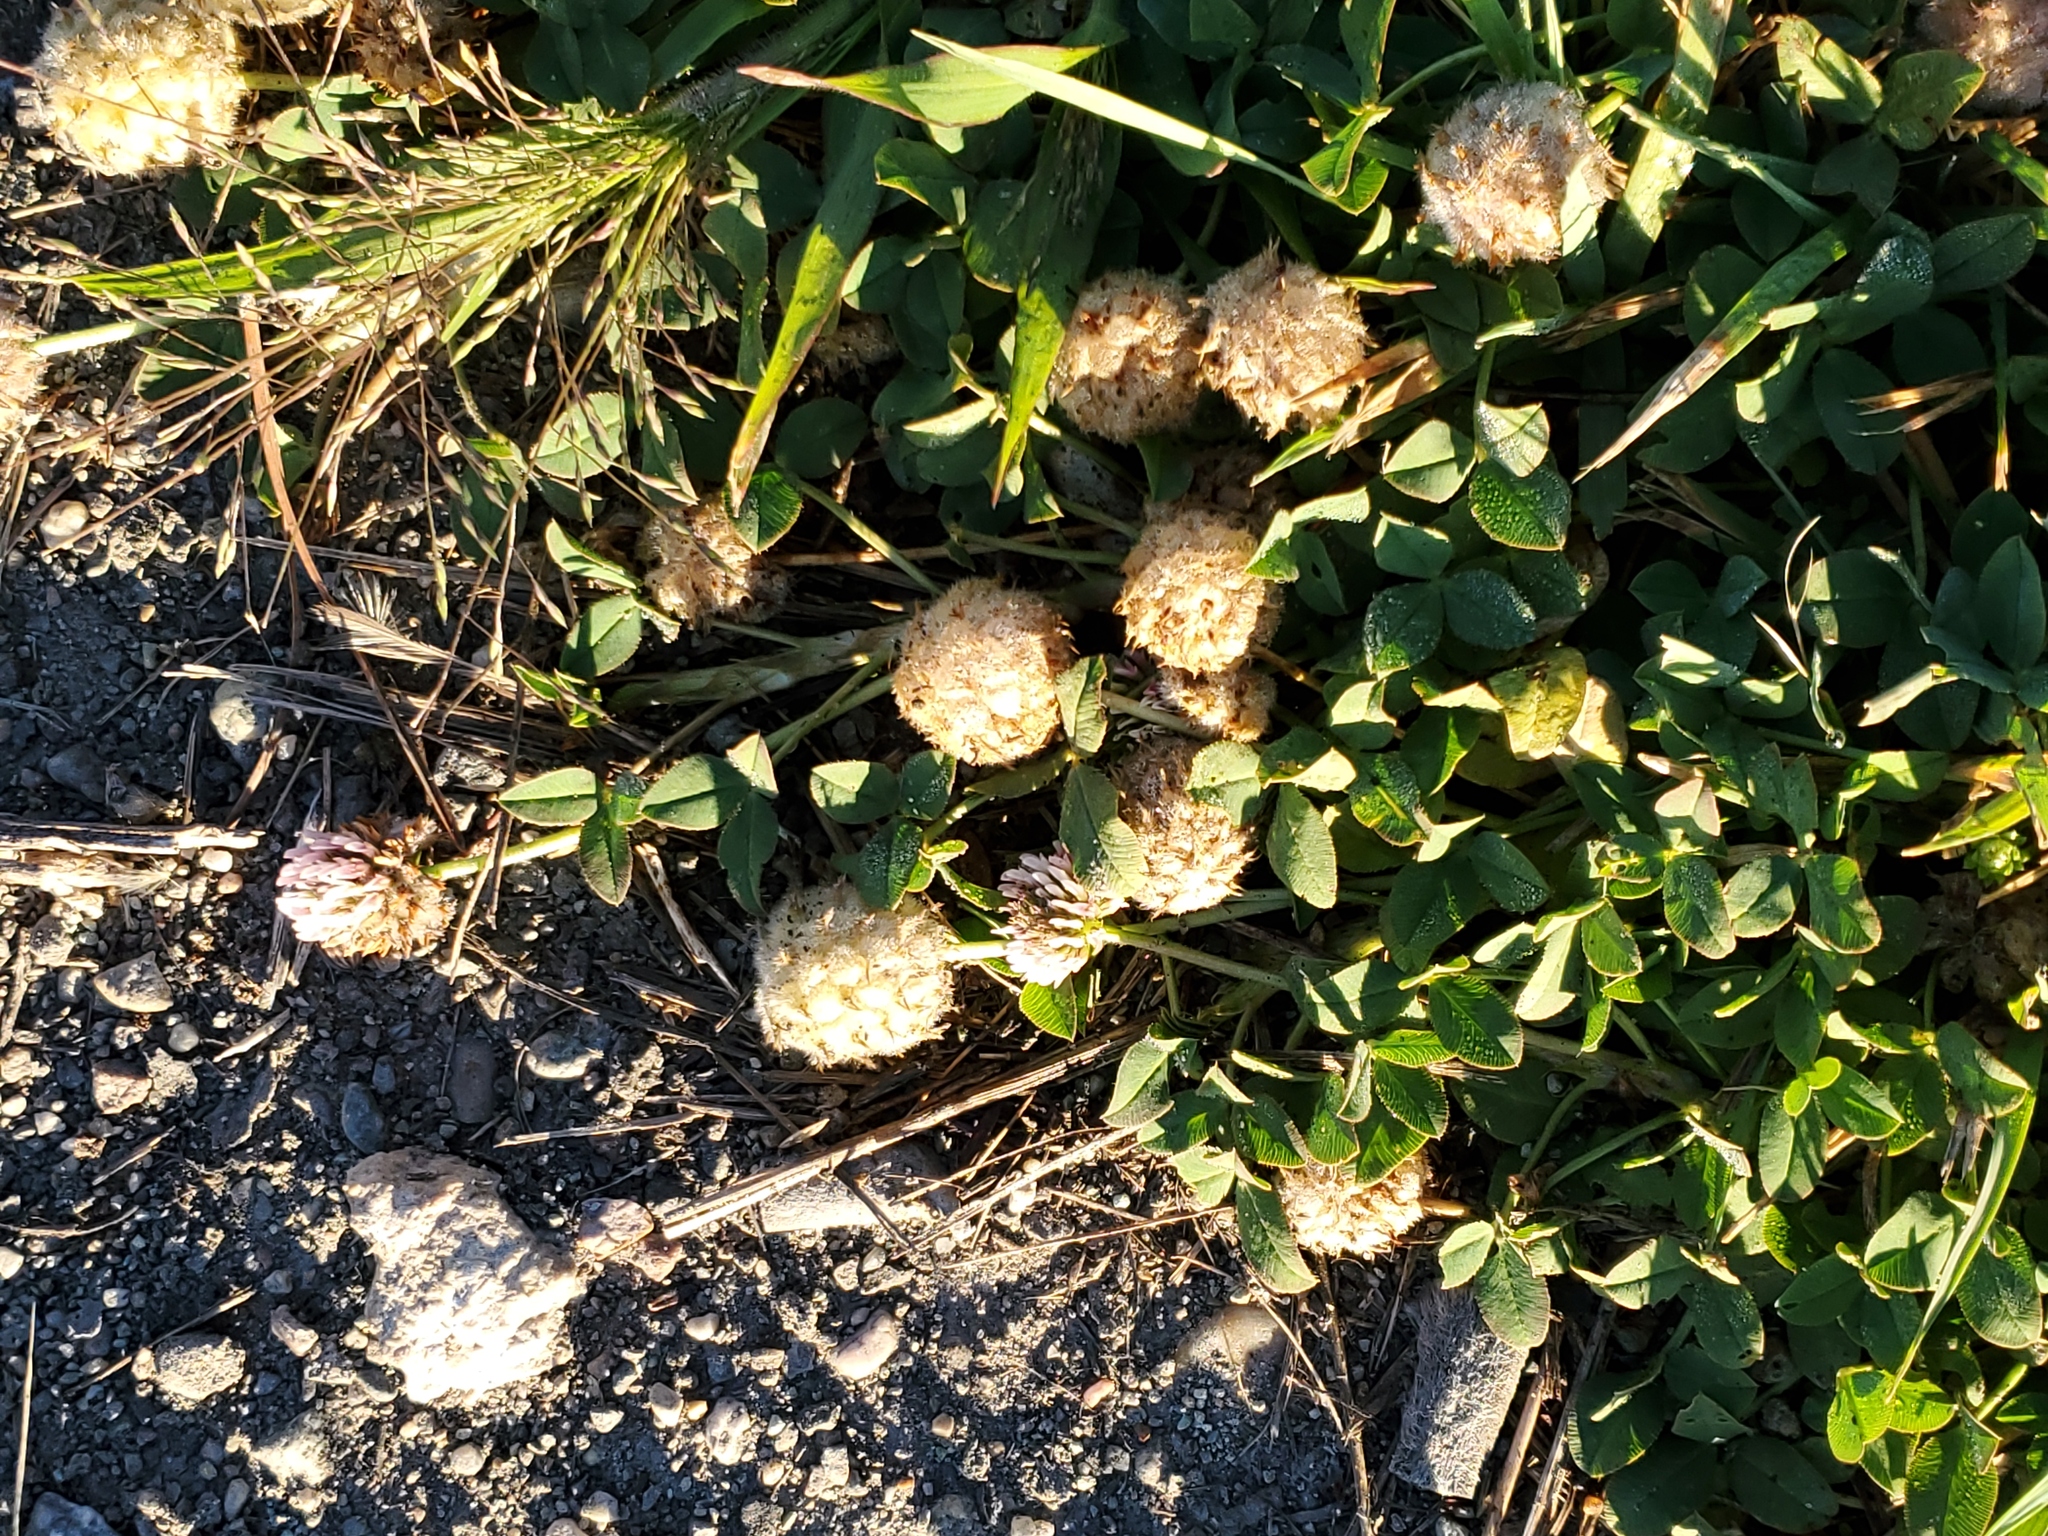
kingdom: Plantae
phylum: Tracheophyta
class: Magnoliopsida
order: Fabales
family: Fabaceae
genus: Trifolium
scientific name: Trifolium fragiferum
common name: Strawberry clover
